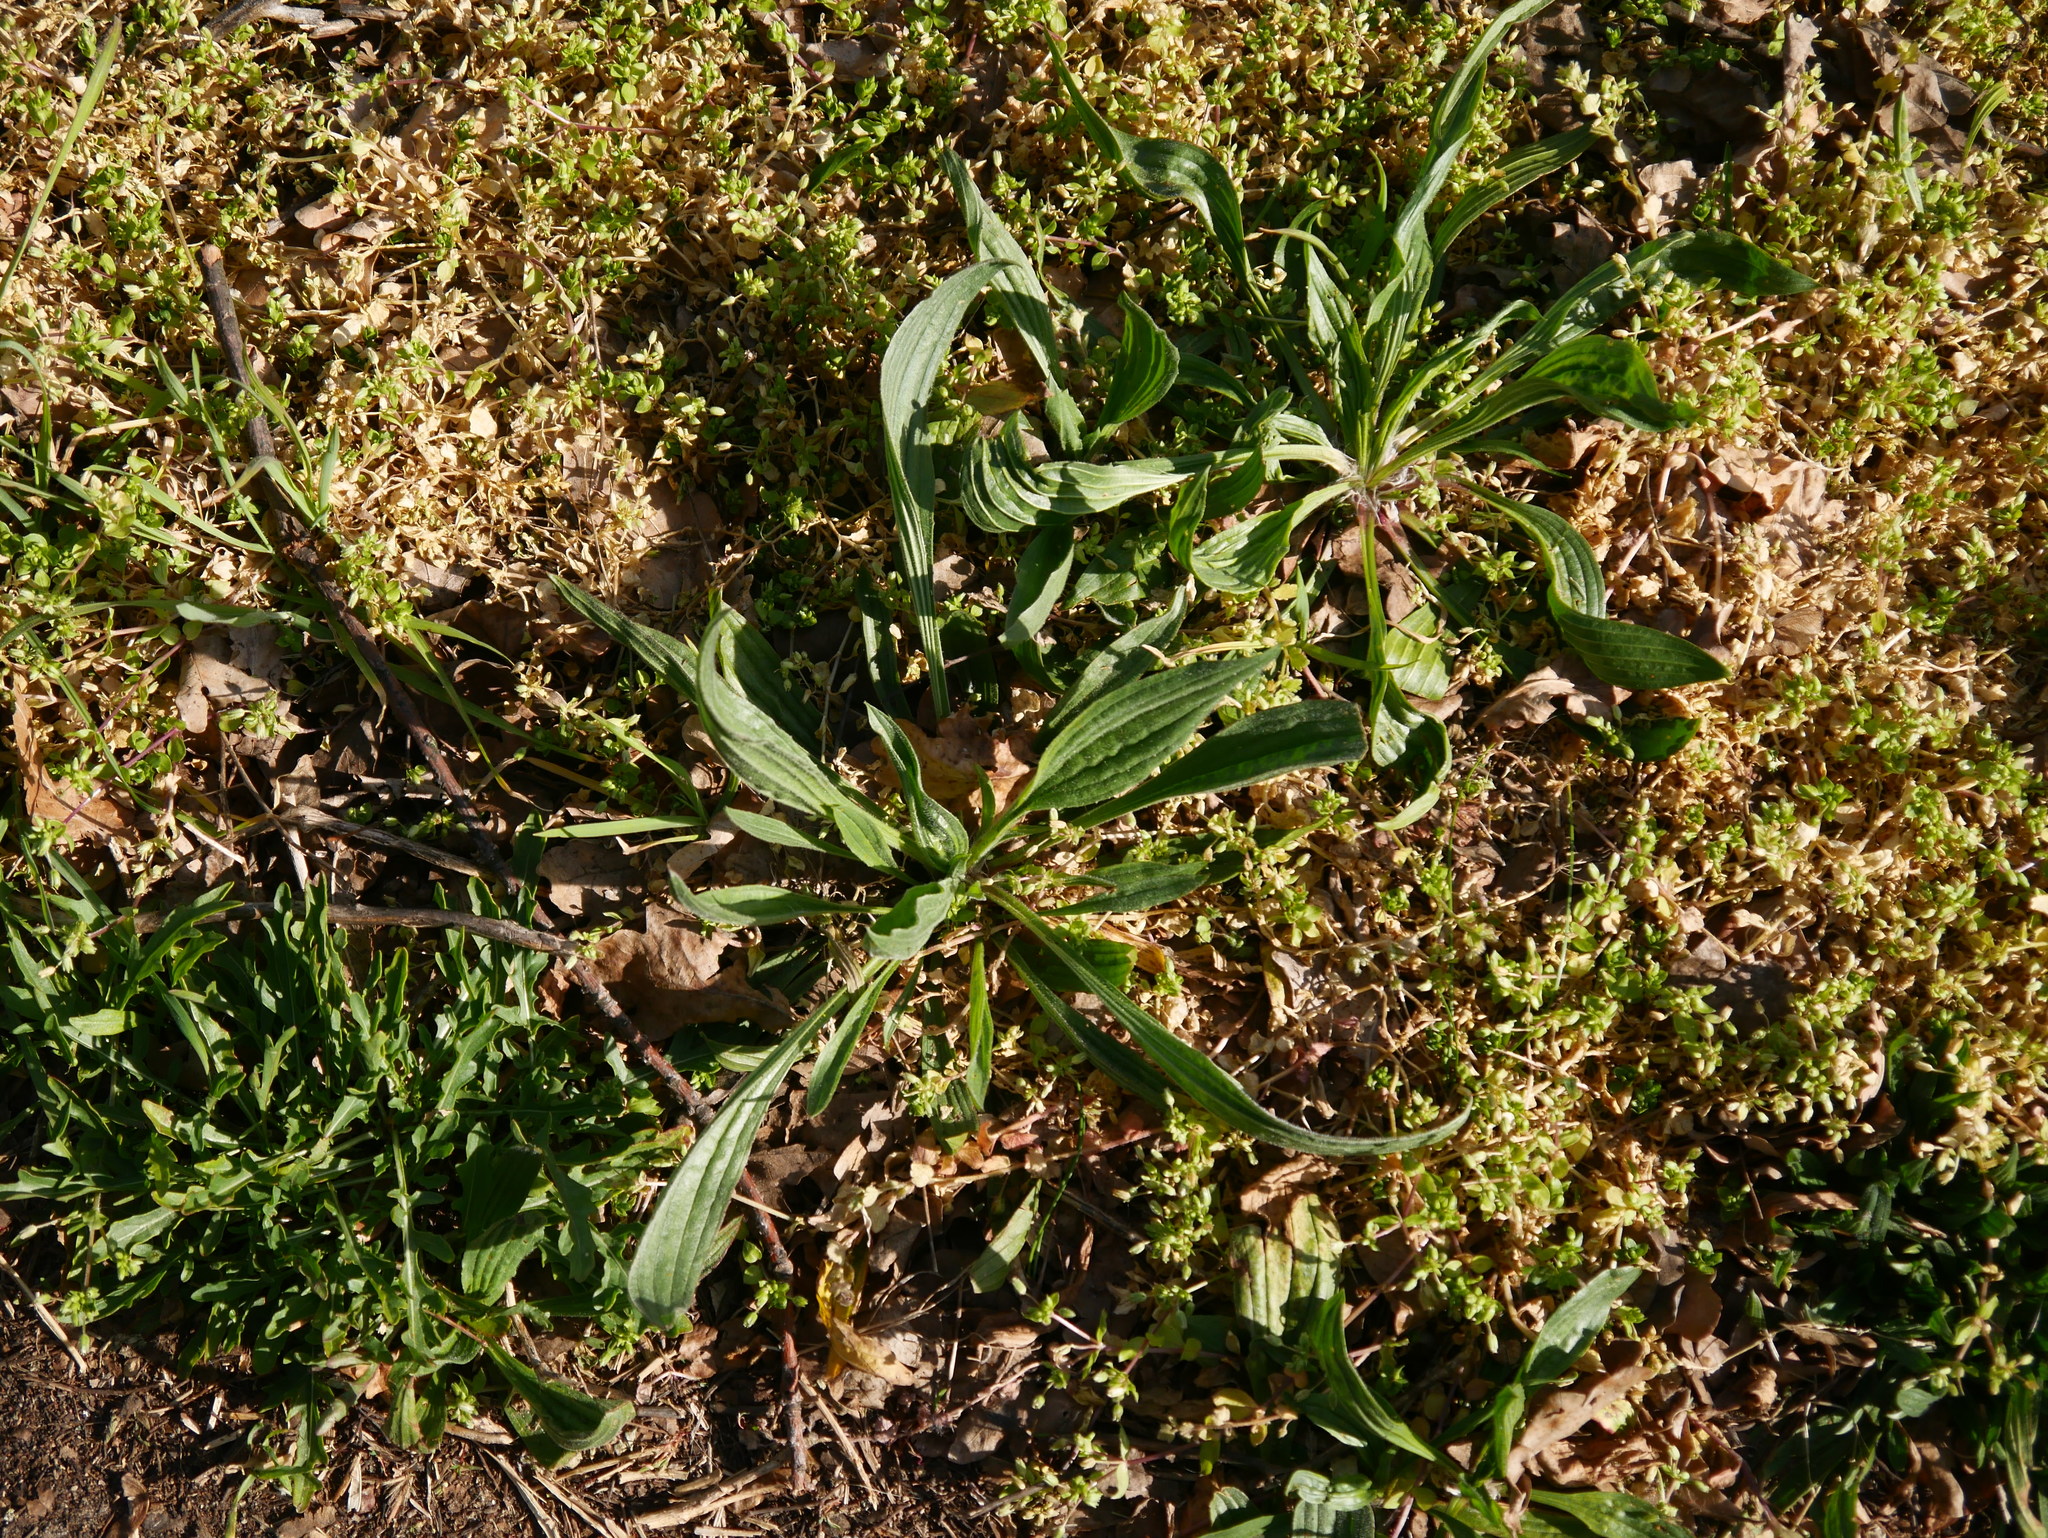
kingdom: Plantae
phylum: Tracheophyta
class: Magnoliopsida
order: Lamiales
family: Plantaginaceae
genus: Plantago
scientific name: Plantago lanceolata
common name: Ribwort plantain
